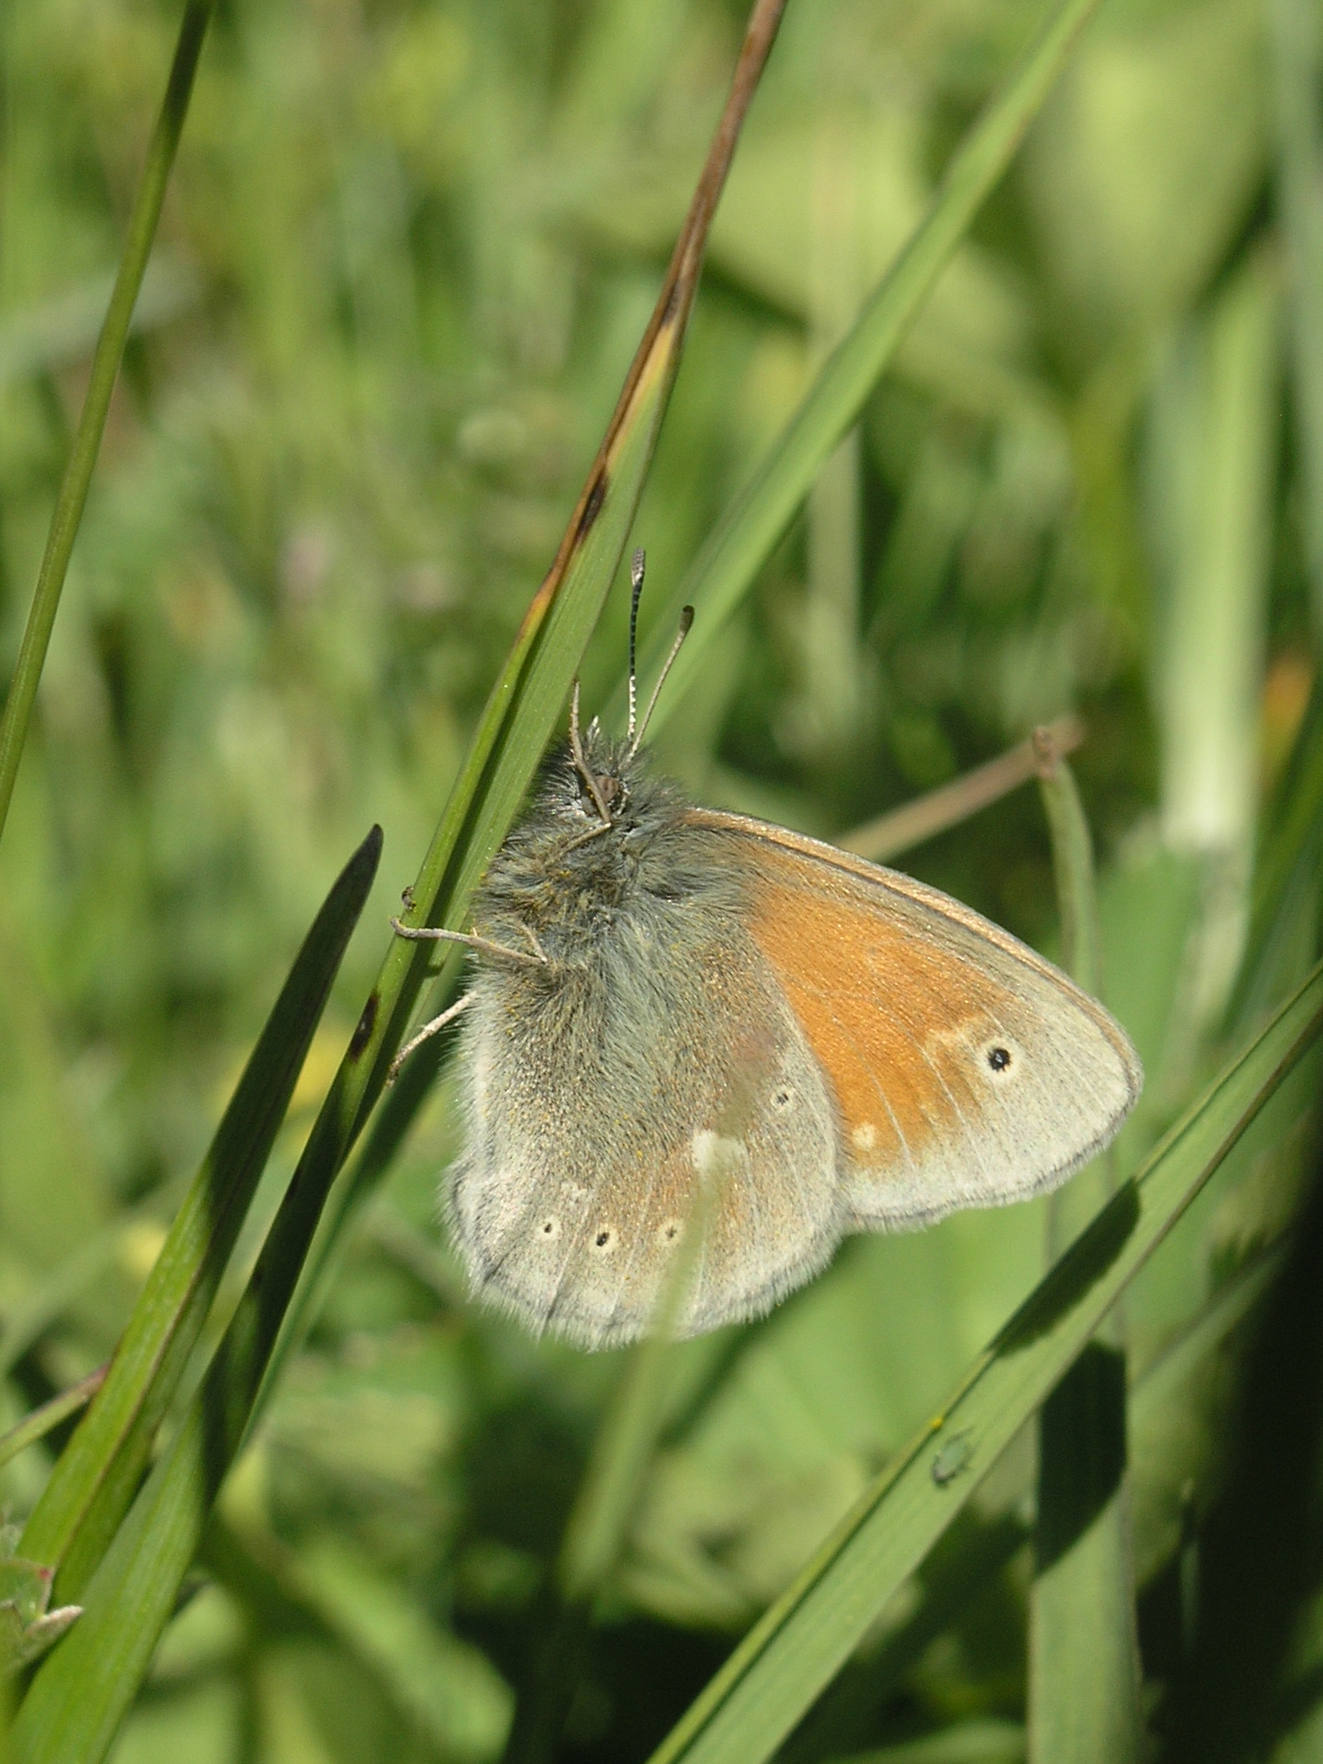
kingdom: Animalia
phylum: Arthropoda
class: Insecta
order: Lepidoptera
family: Nymphalidae
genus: Coenonympha
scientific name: Coenonympha tullia
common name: Large heath
